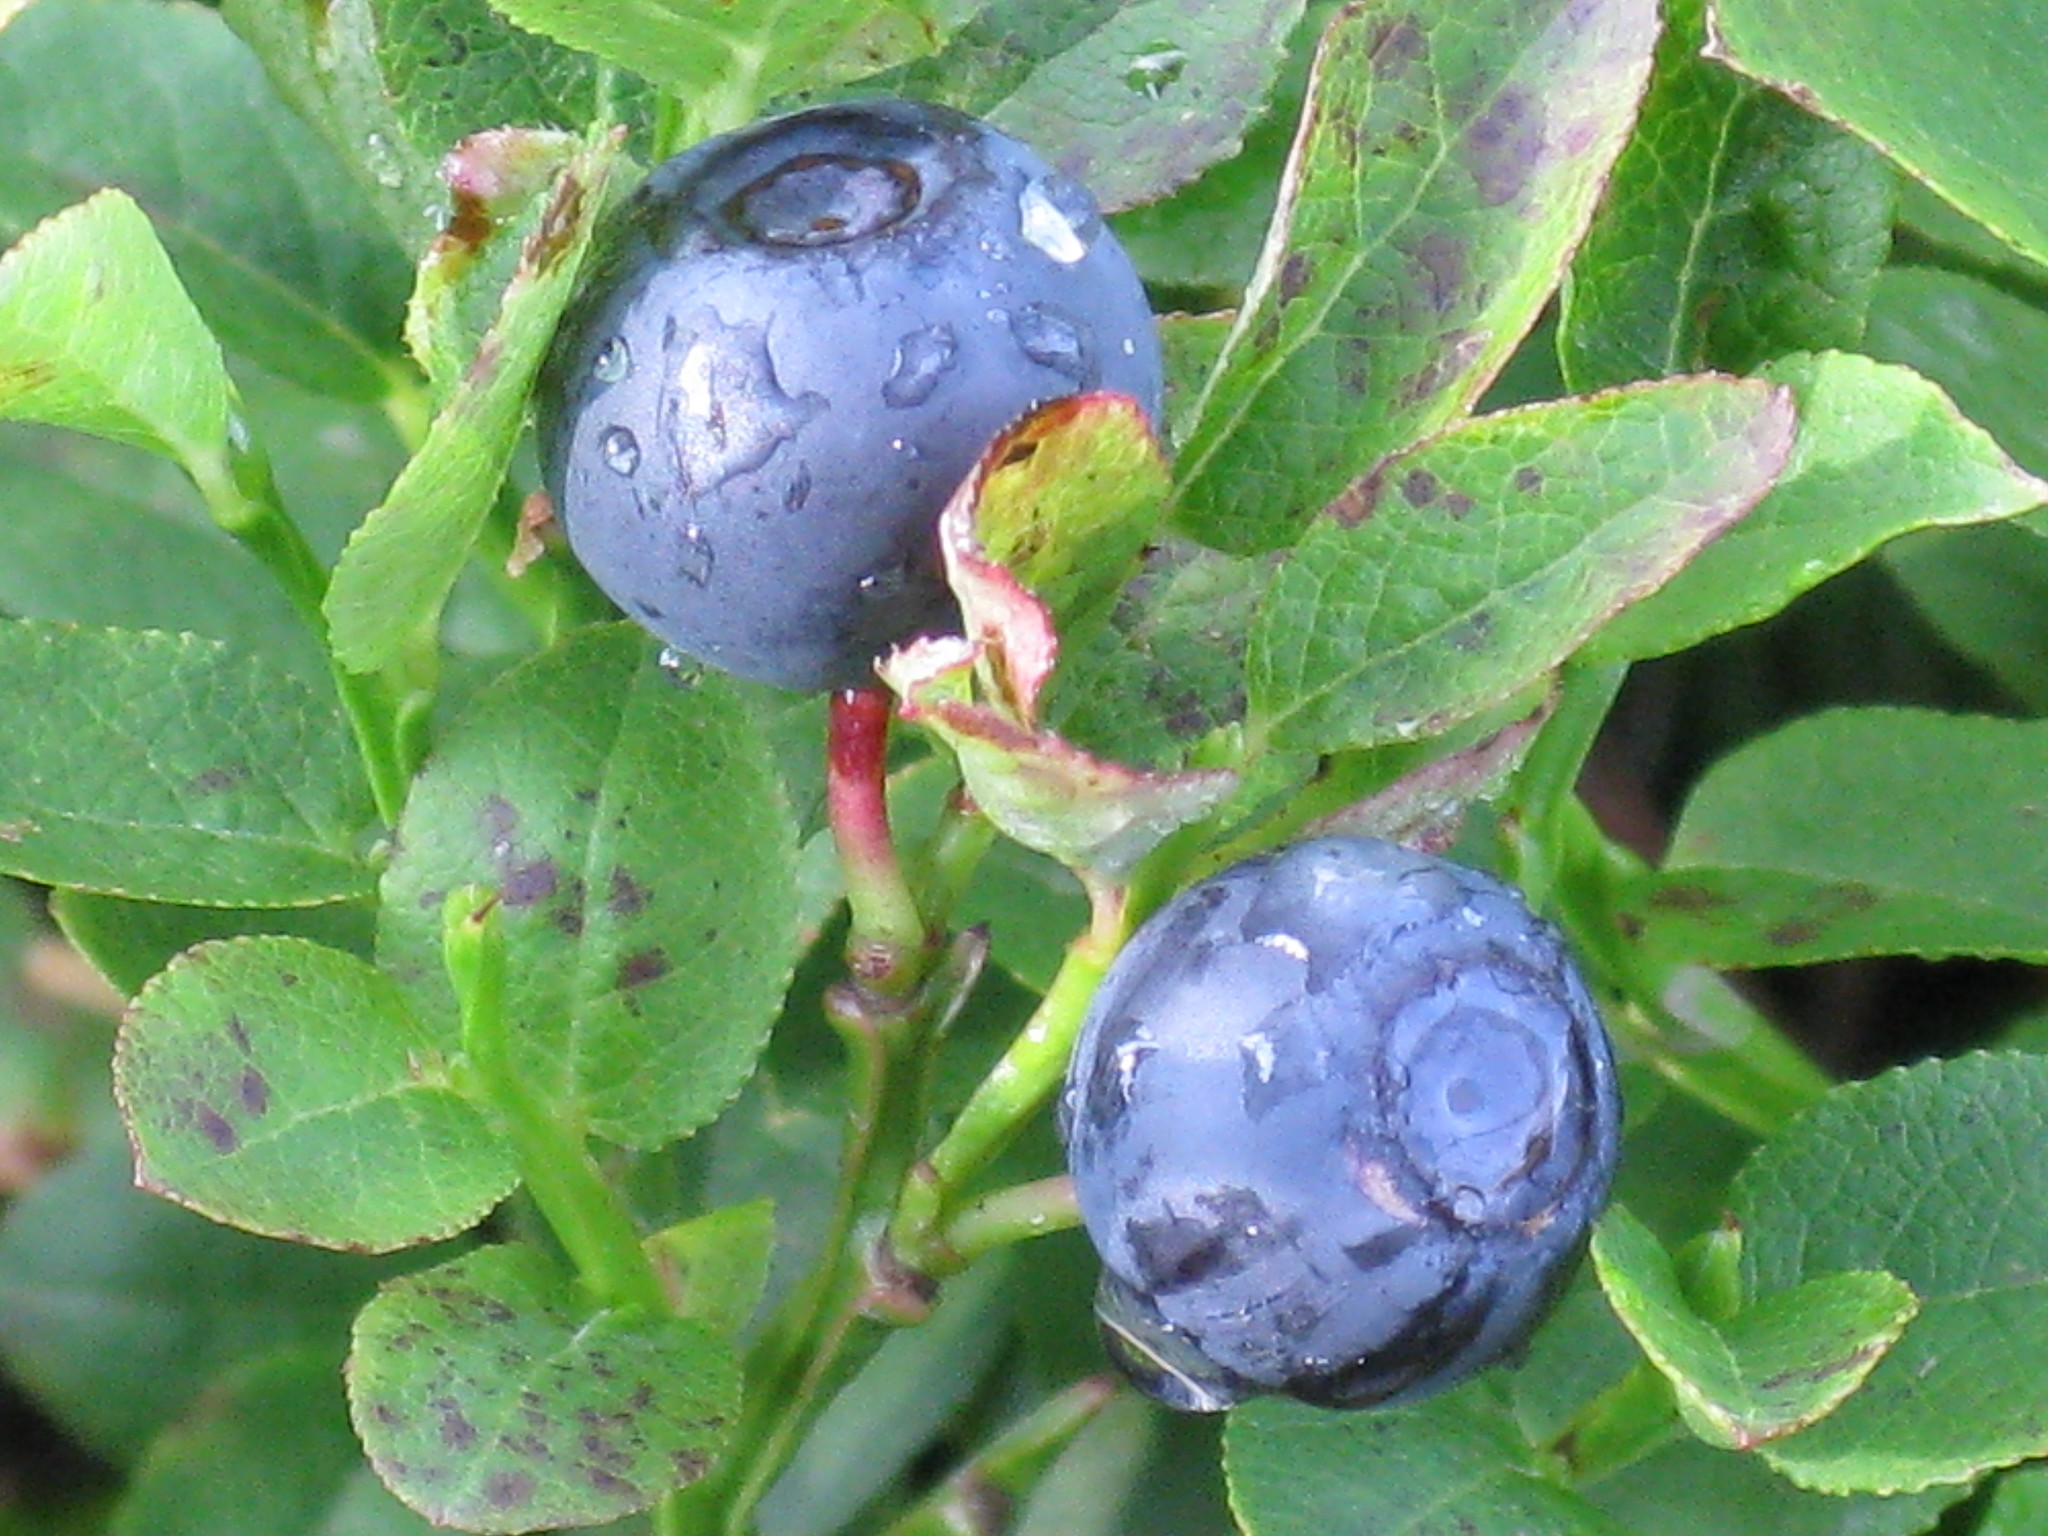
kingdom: Plantae
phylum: Tracheophyta
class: Magnoliopsida
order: Ericales
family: Ericaceae
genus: Vaccinium
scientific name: Vaccinium myrtillus
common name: Bilberry
